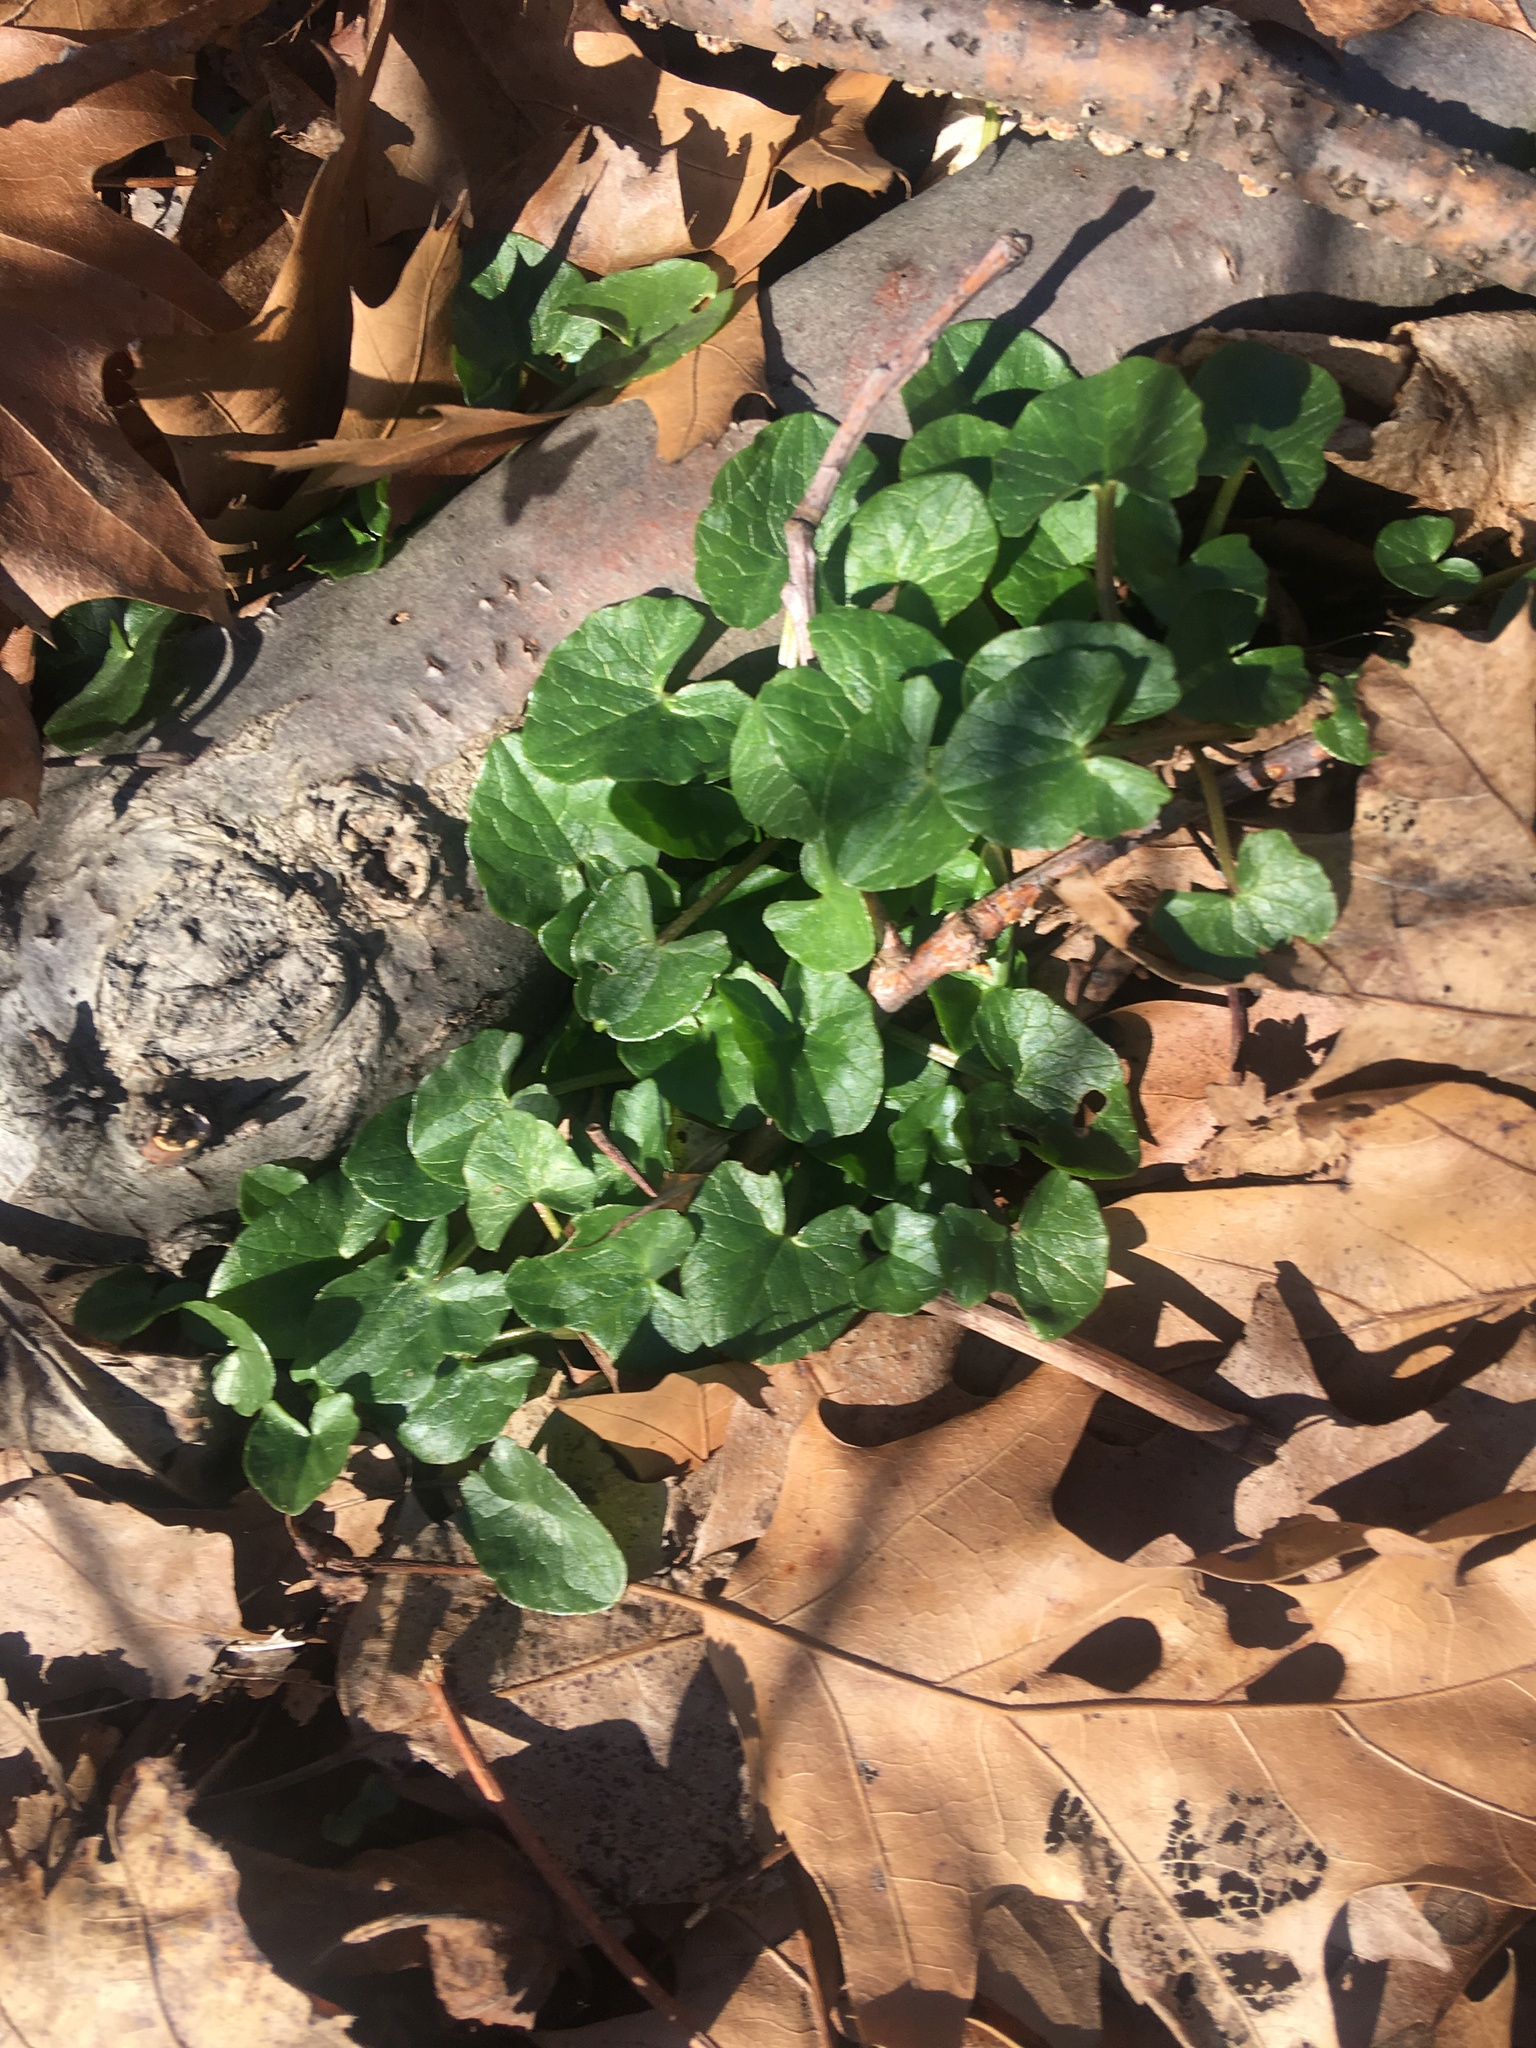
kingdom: Plantae
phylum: Tracheophyta
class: Magnoliopsida
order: Ranunculales
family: Ranunculaceae
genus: Ficaria
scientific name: Ficaria verna
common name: Lesser celandine
